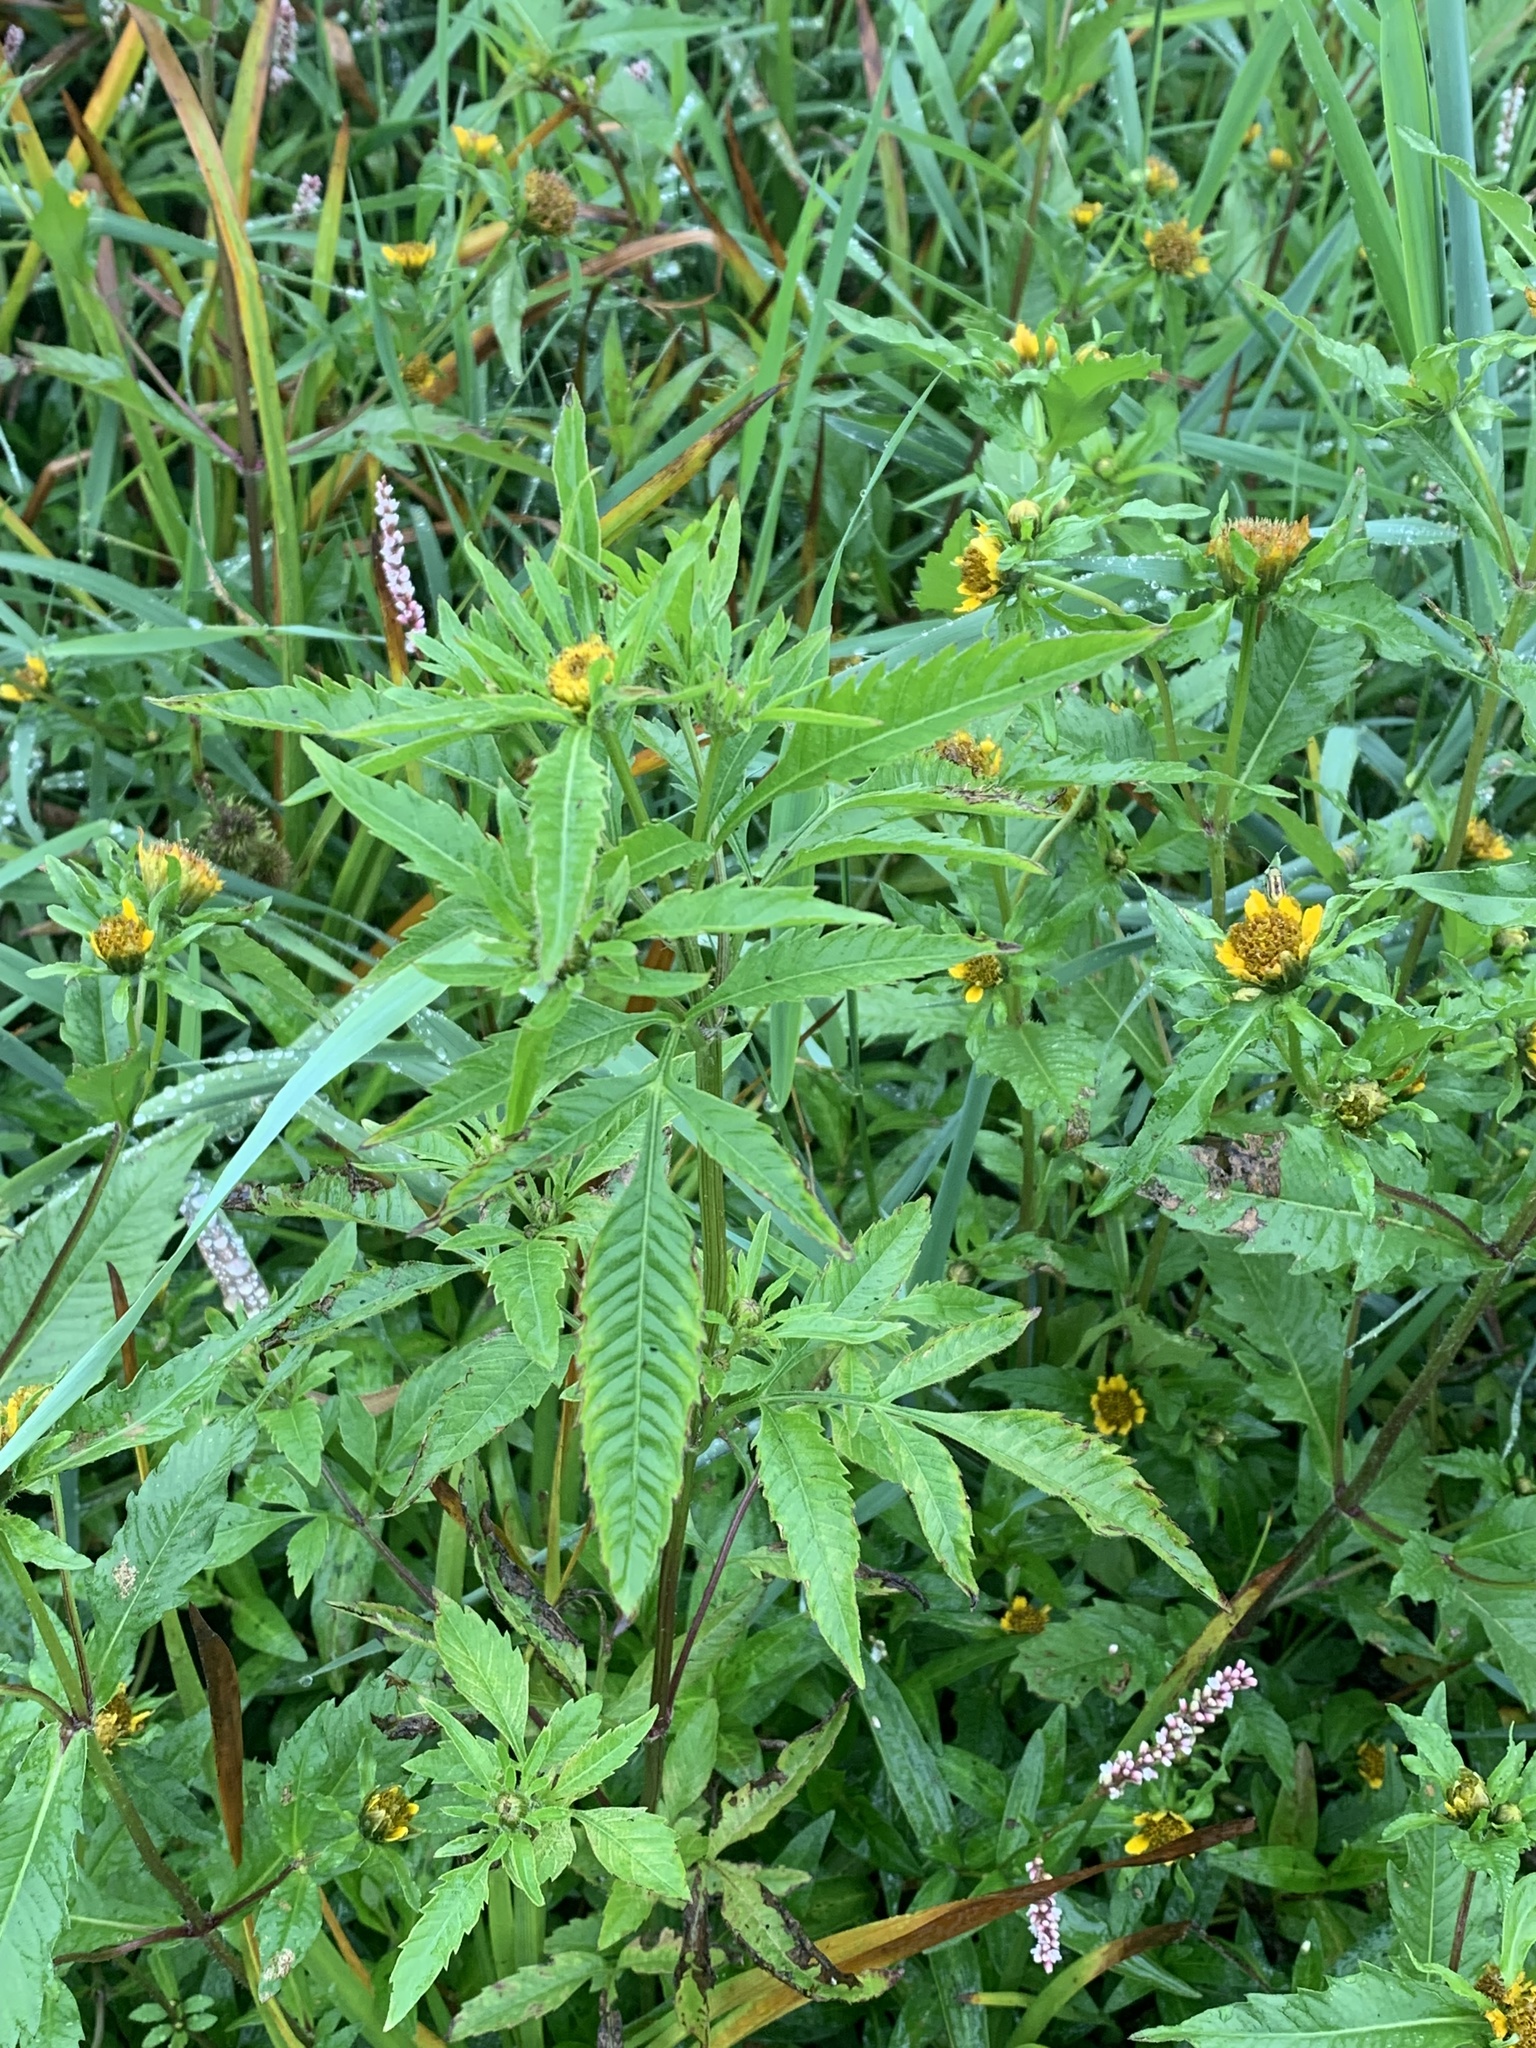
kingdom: Plantae
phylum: Tracheophyta
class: Magnoliopsida
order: Asterales
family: Asteraceae
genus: Bidens
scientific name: Bidens vulgata
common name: Tall beggarticks
